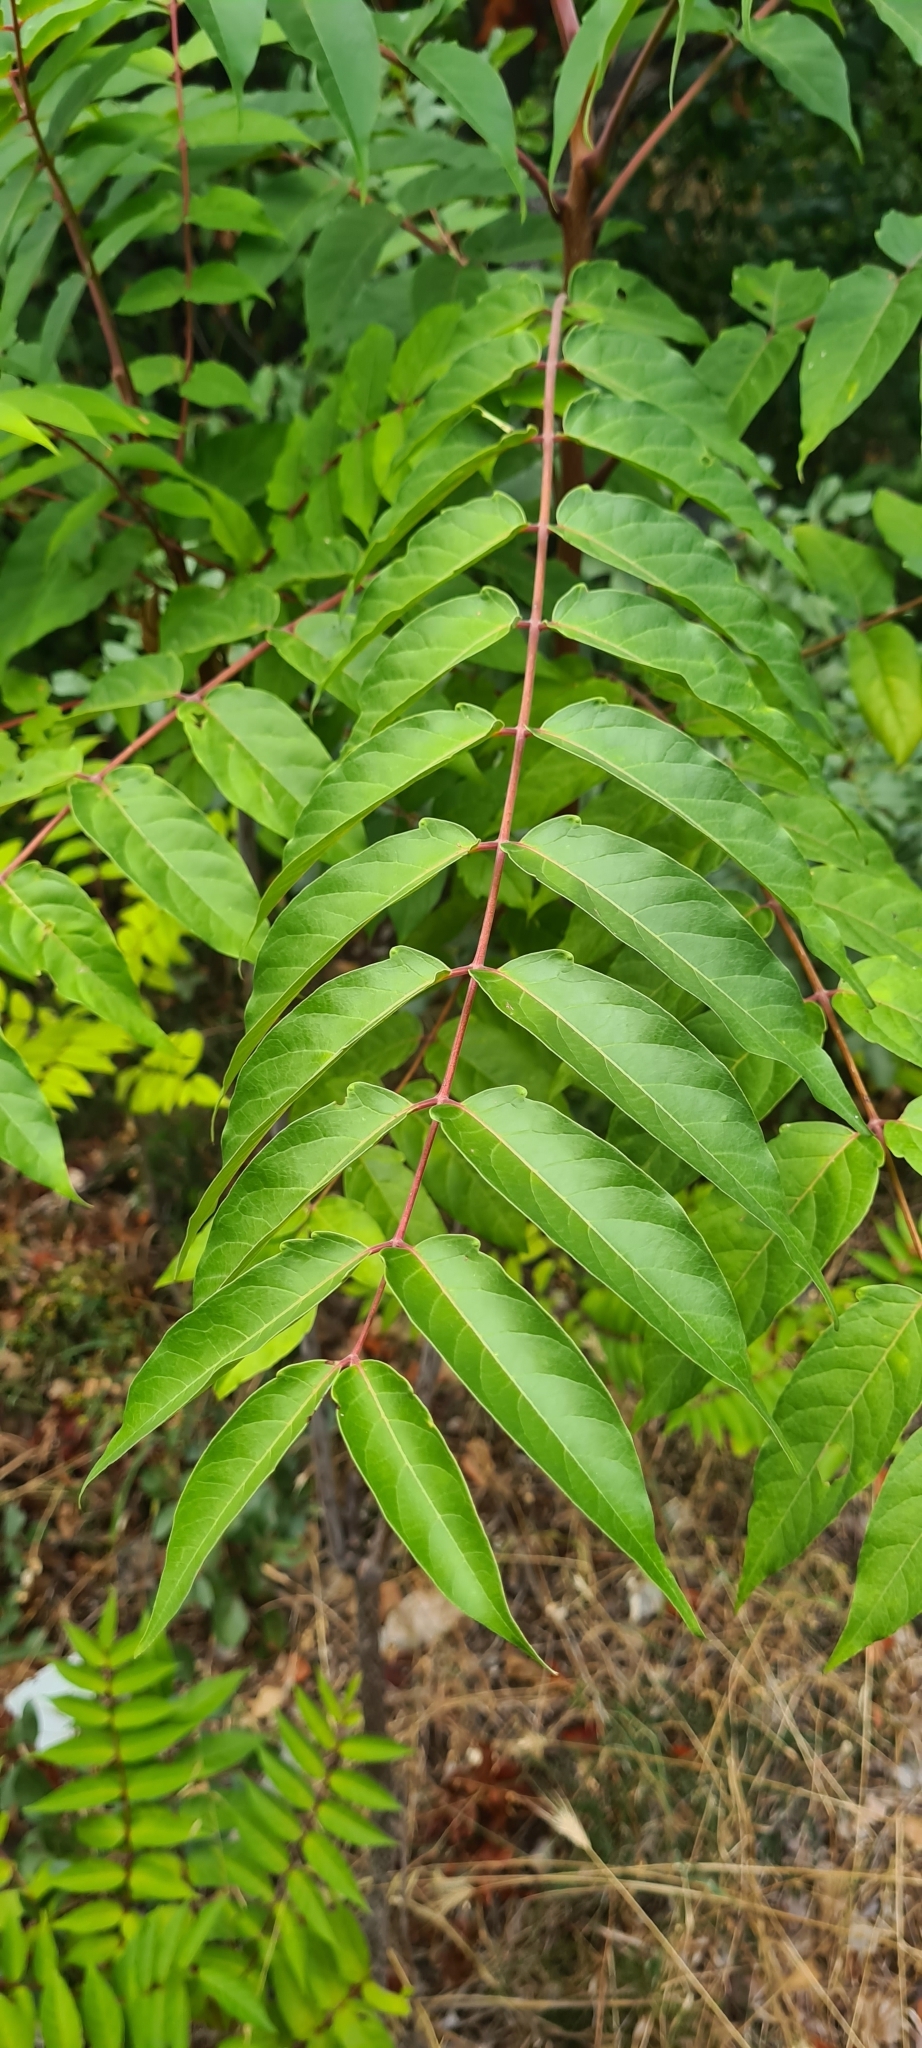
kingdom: Plantae
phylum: Tracheophyta
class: Magnoliopsida
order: Sapindales
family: Simaroubaceae
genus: Ailanthus
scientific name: Ailanthus altissima
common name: Tree-of-heaven
